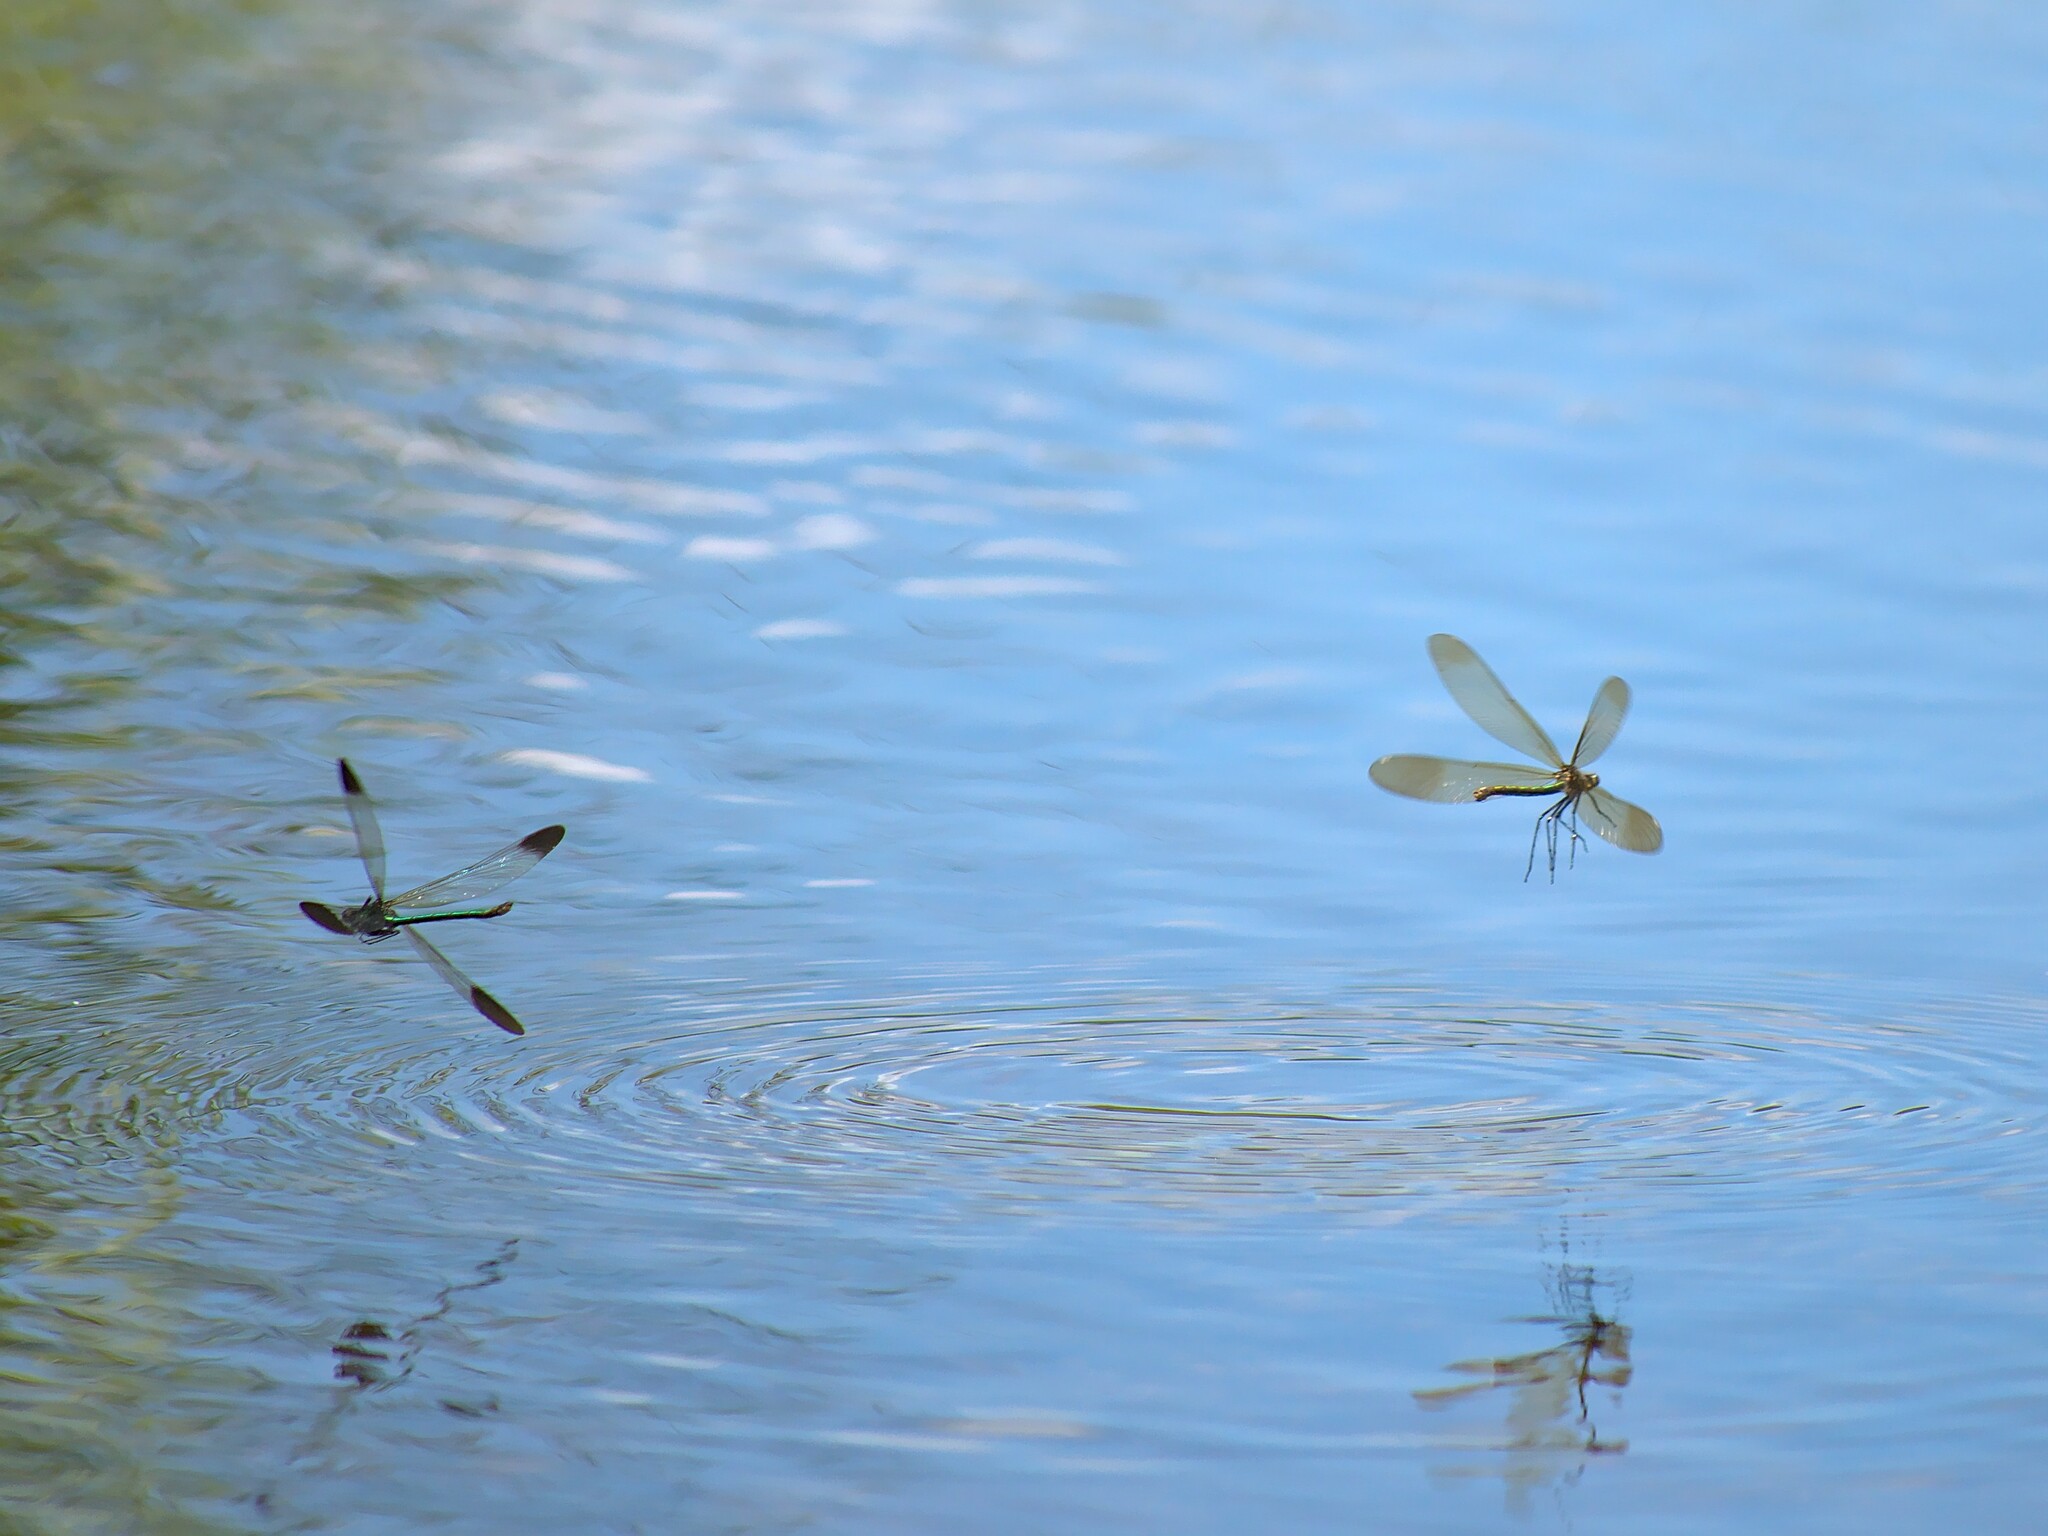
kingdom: Animalia
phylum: Arthropoda
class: Insecta
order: Odonata
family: Calopterygidae
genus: Calopteryx
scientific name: Calopteryx aequabilis
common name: River jewelwing
